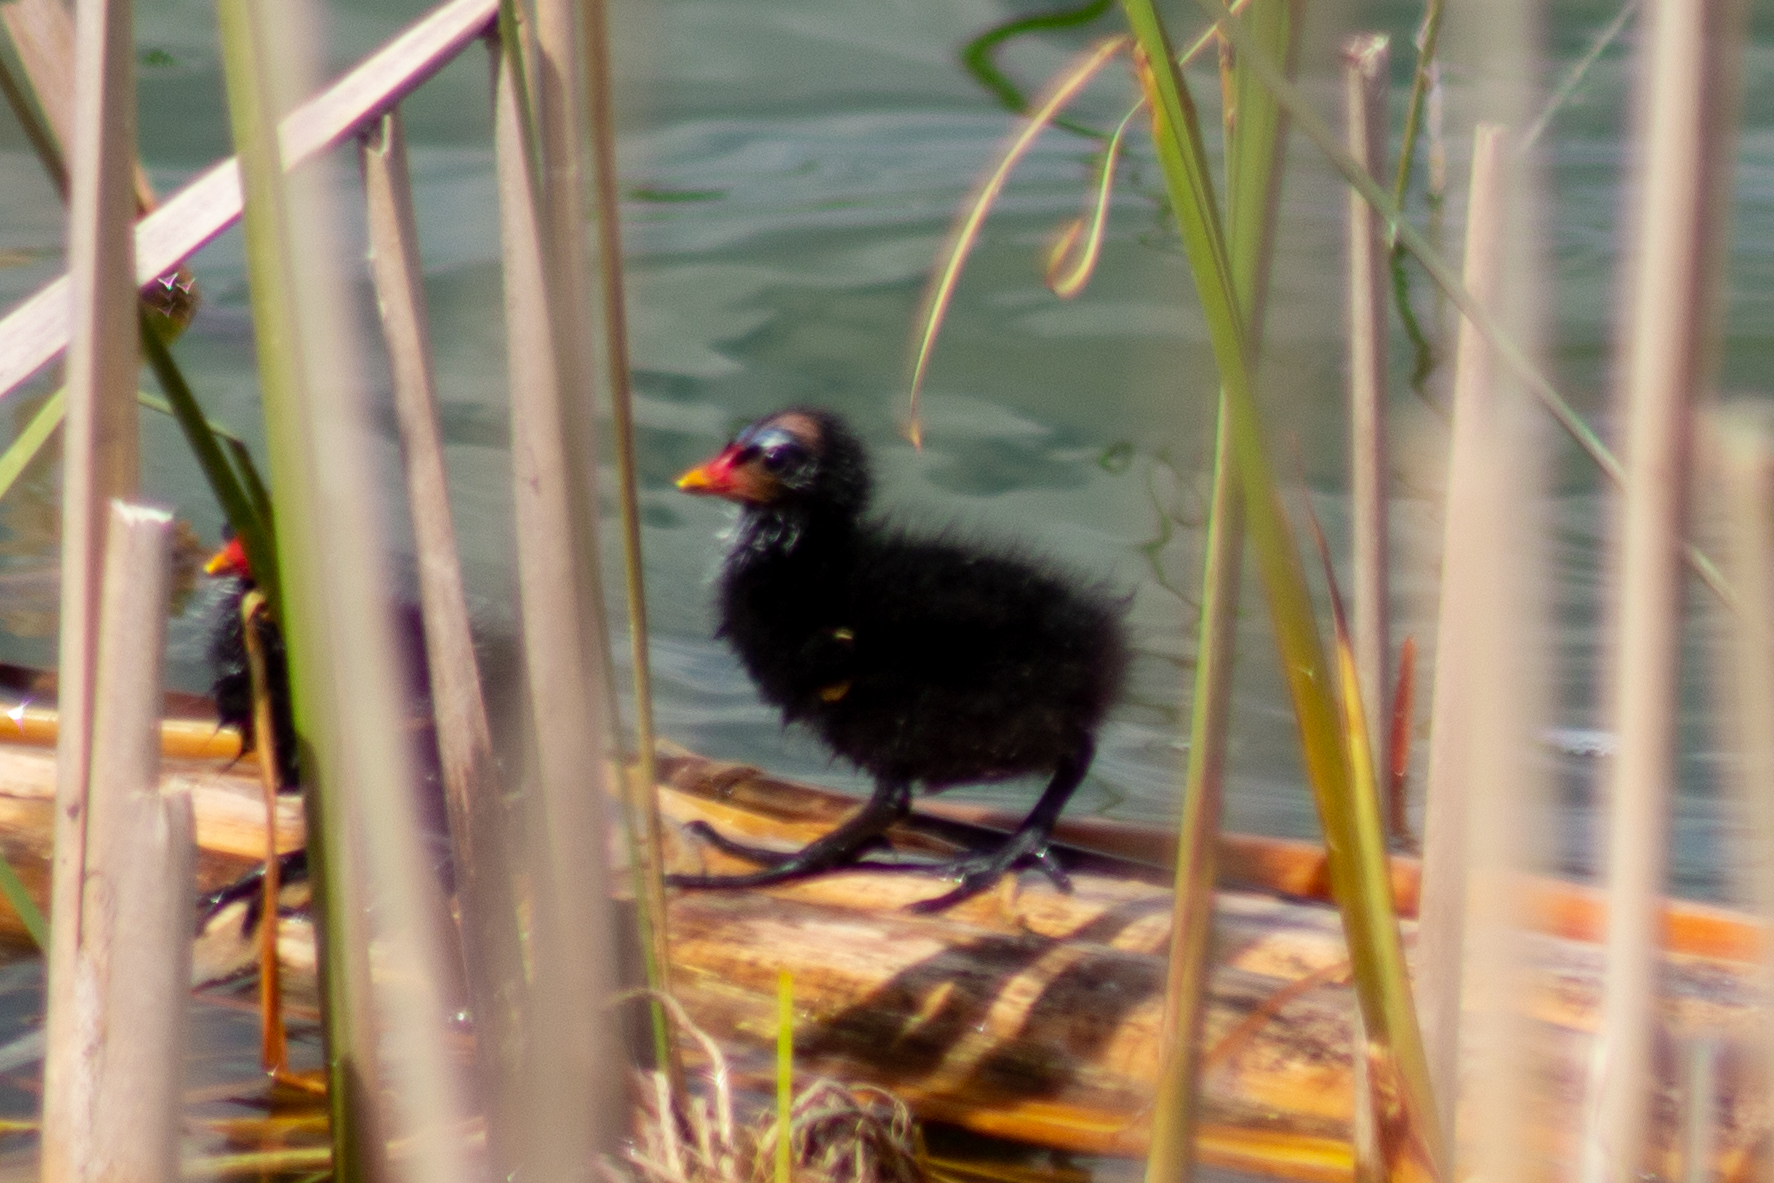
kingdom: Animalia
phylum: Chordata
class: Aves
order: Gruiformes
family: Rallidae
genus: Gallinula
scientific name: Gallinula chloropus
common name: Common moorhen
